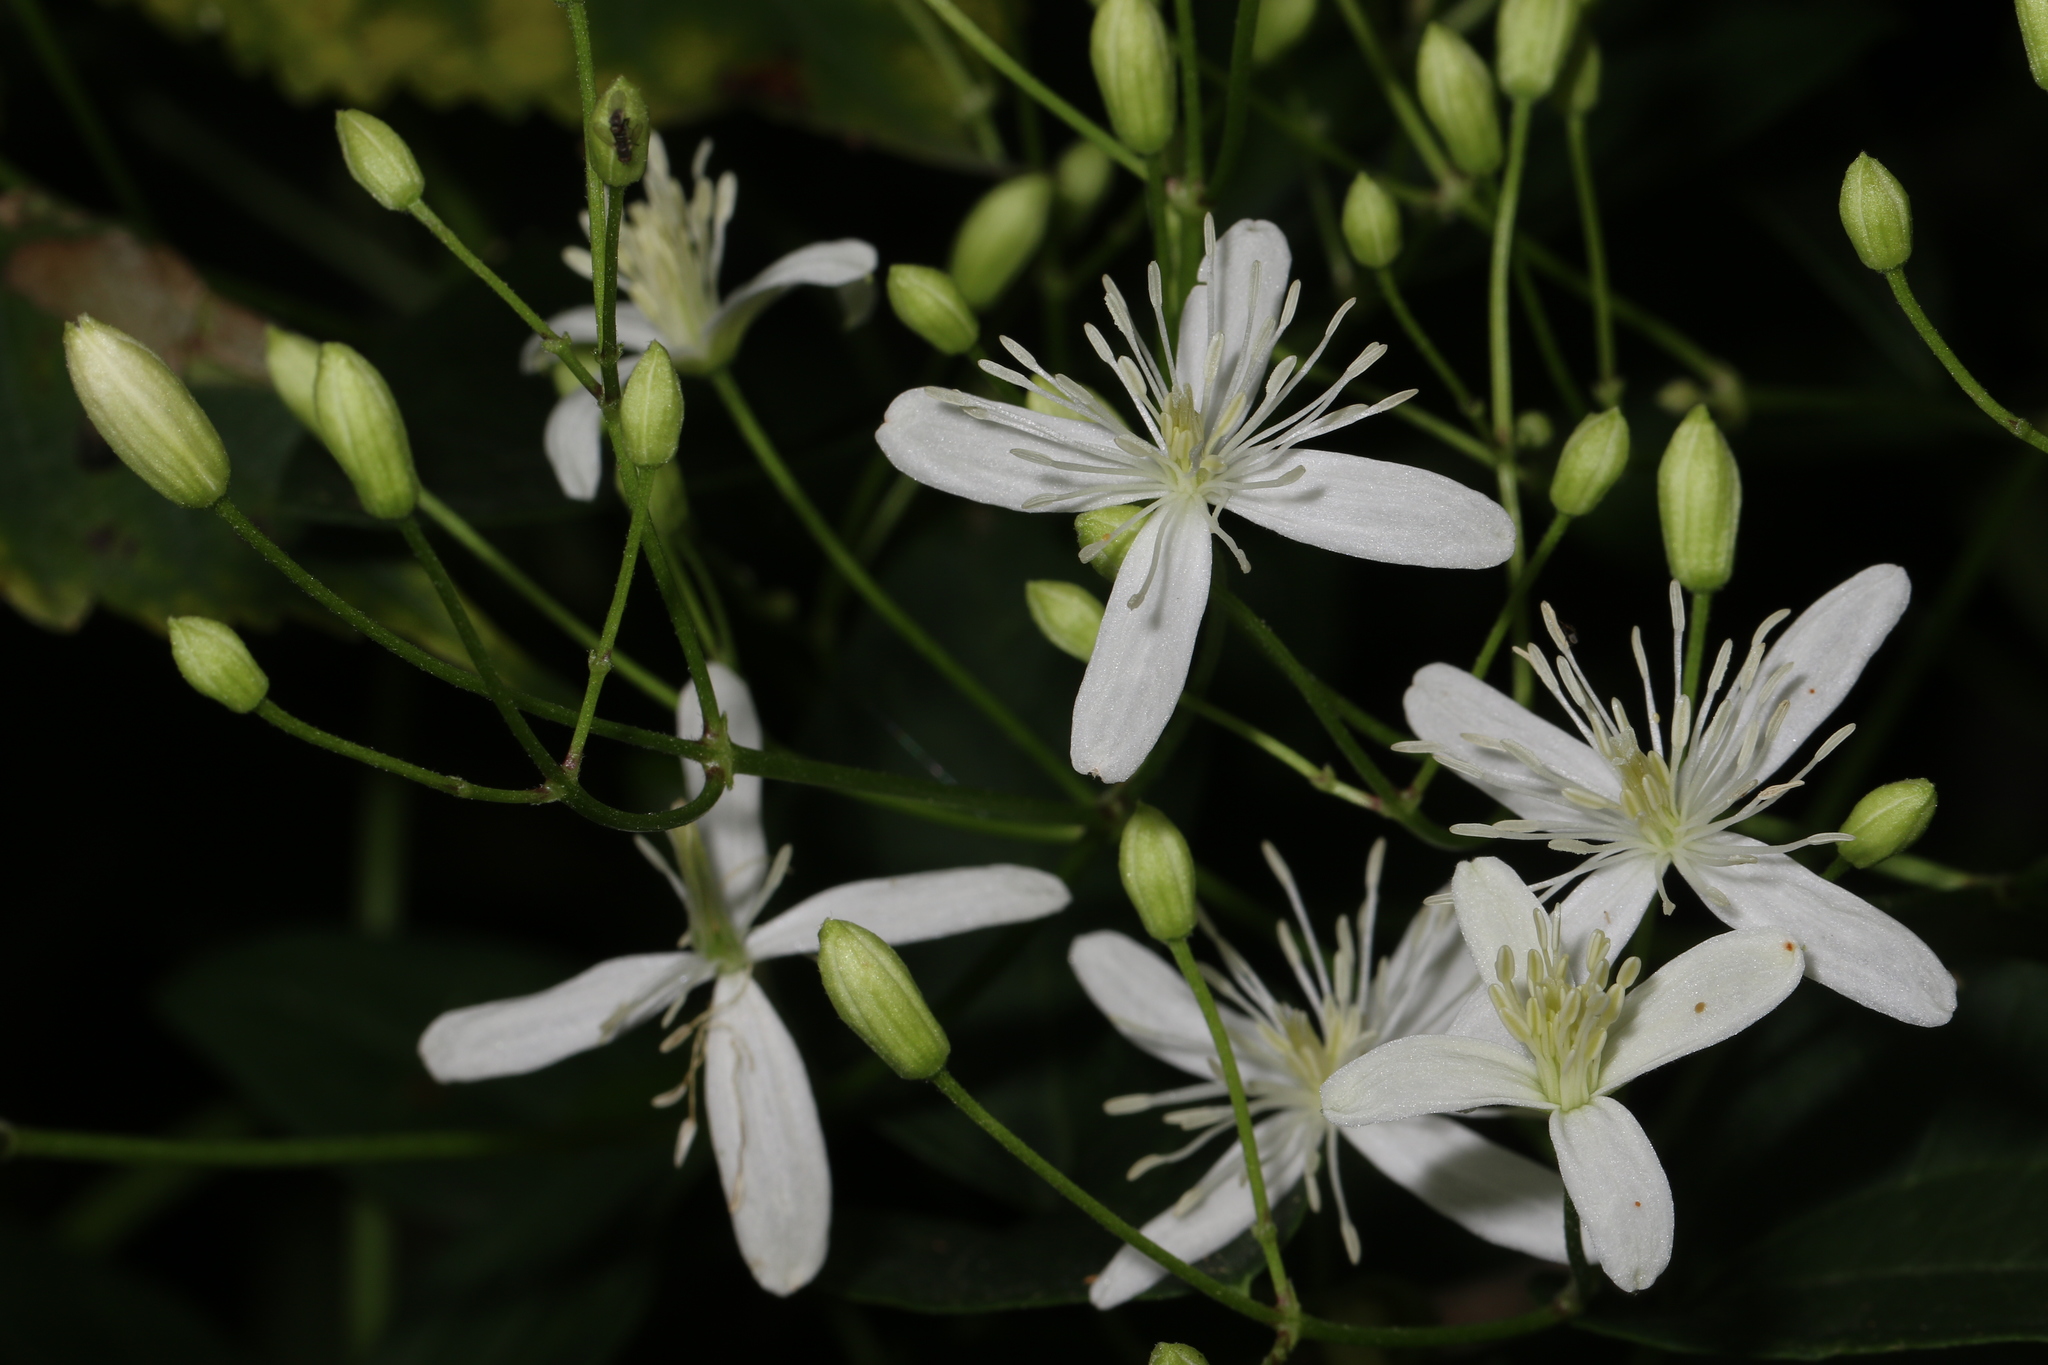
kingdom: Plantae
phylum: Tracheophyta
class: Magnoliopsida
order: Ranunculales
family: Ranunculaceae
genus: Clematis
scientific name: Clematis terniflora
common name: Sweet autumn clematis
